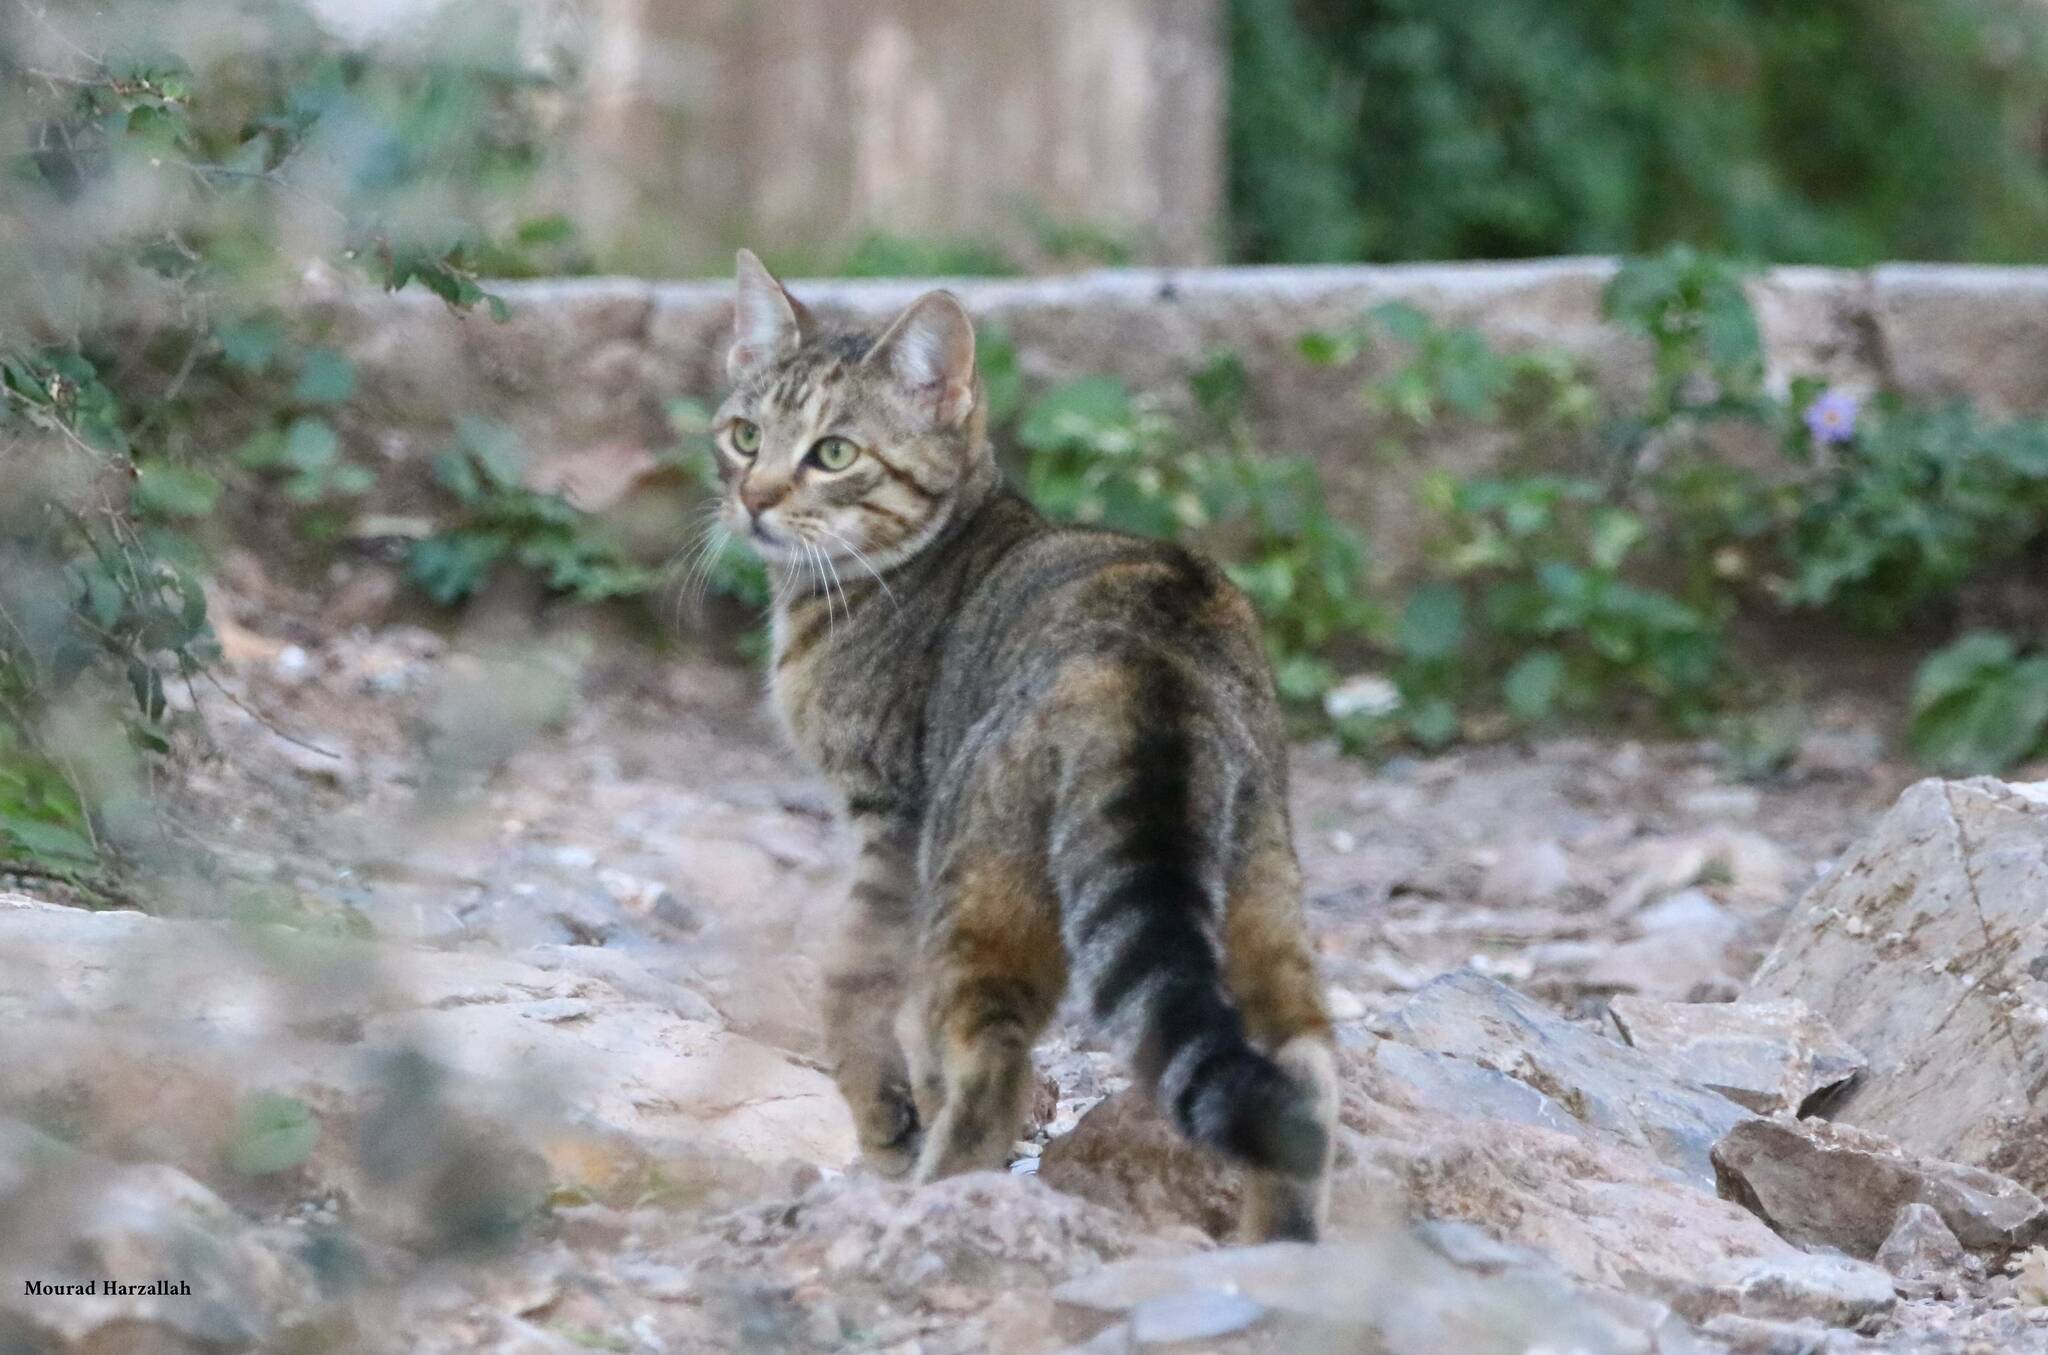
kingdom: Animalia
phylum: Chordata
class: Mammalia
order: Carnivora
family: Felidae
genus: Felis
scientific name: Felis catus
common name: Domestic cat
